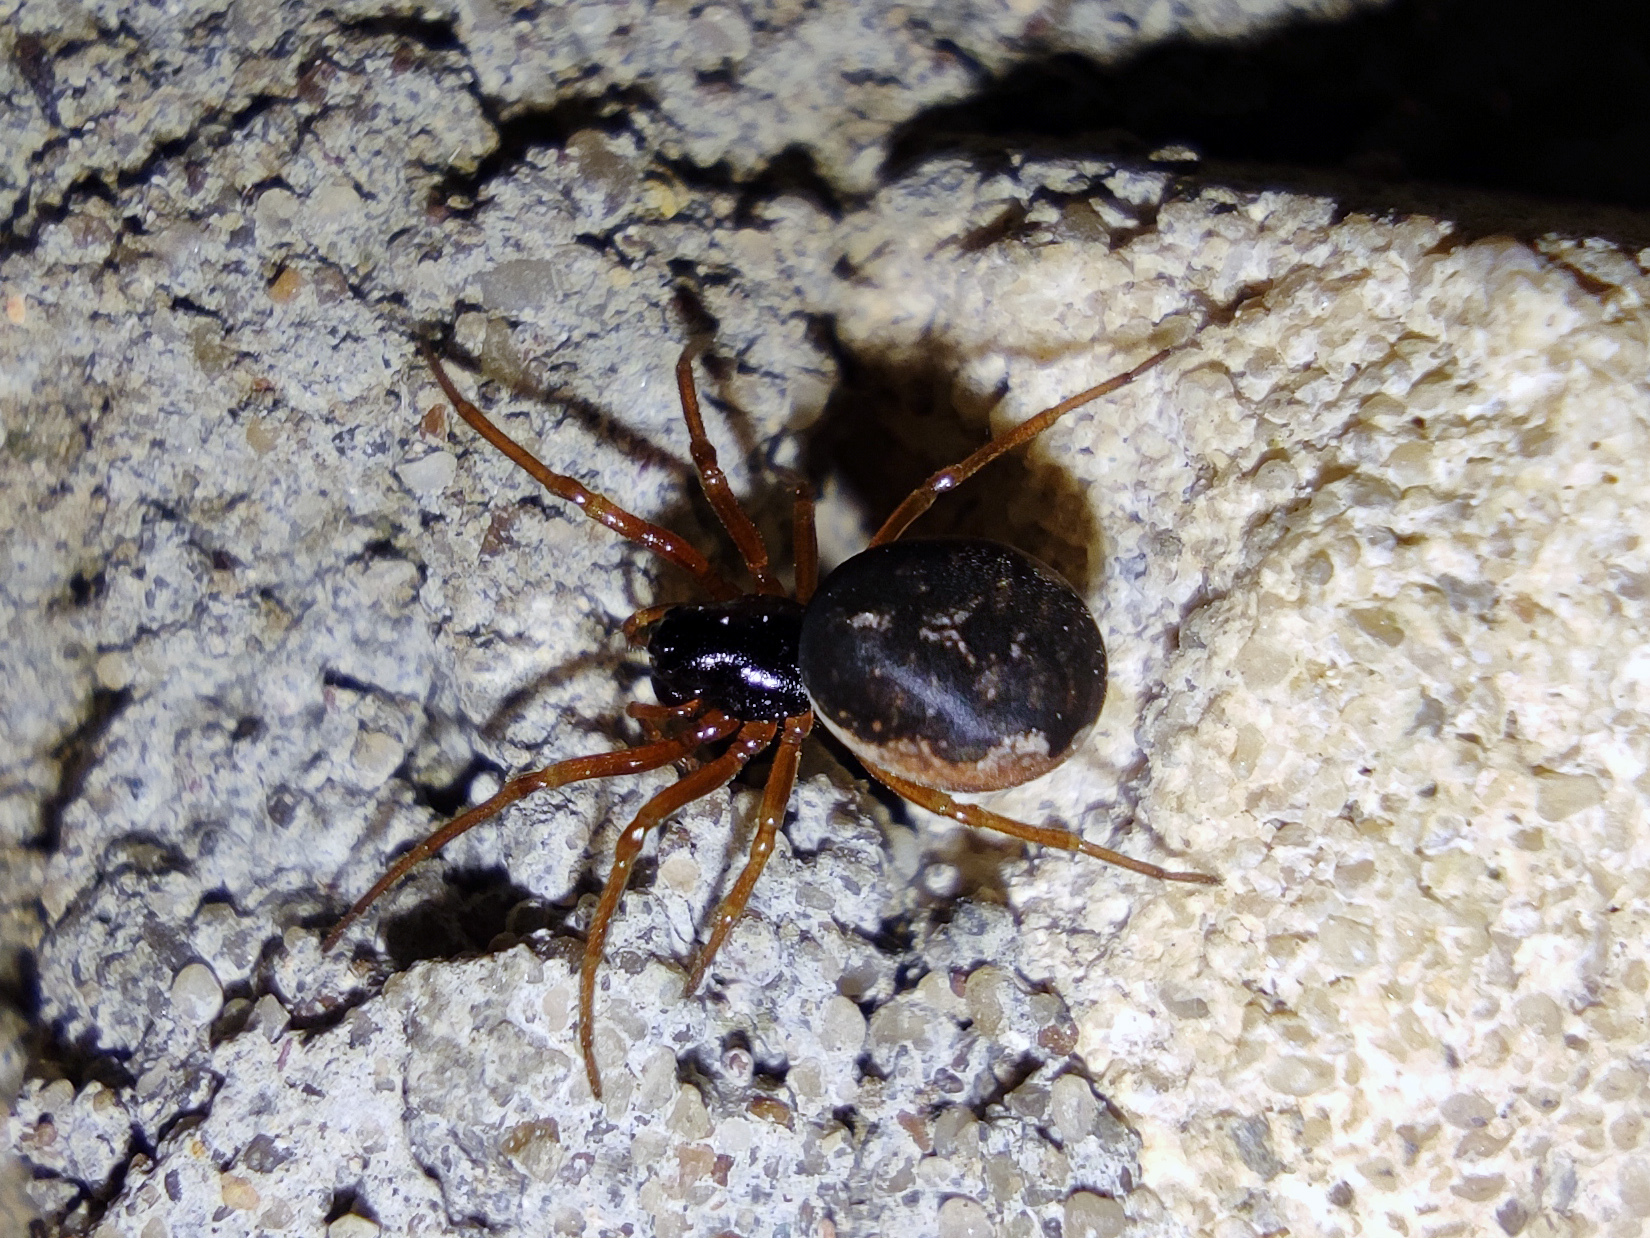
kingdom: Animalia
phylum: Arthropoda
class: Arachnida
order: Araneae
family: Tetragnathidae
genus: Pachygnatha
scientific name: Pachygnatha degeeri
